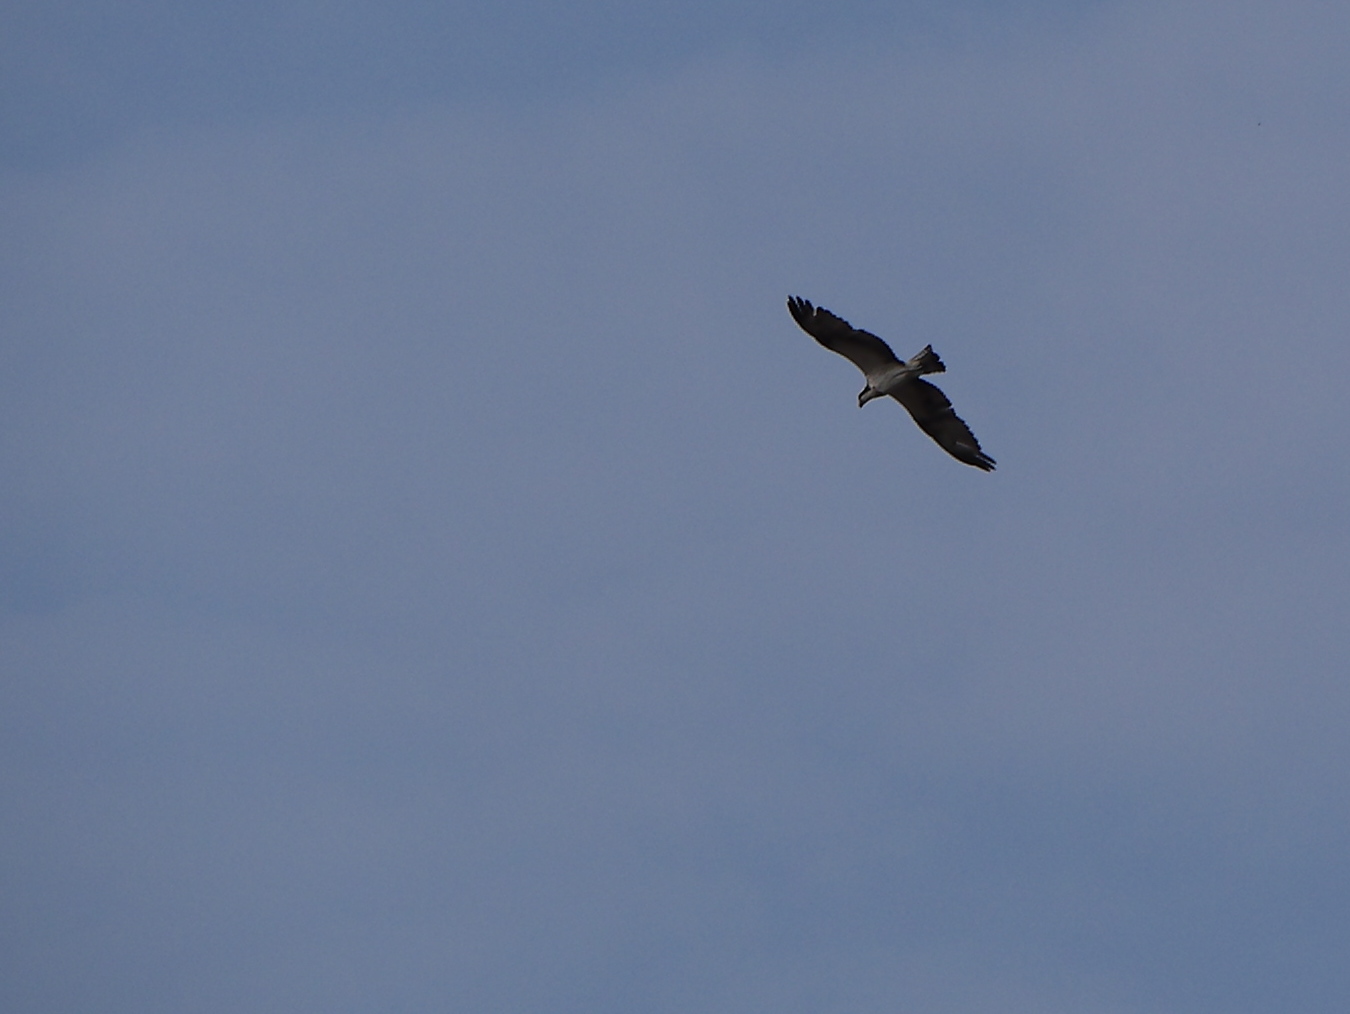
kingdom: Animalia
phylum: Chordata
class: Aves
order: Accipitriformes
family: Pandionidae
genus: Pandion
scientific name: Pandion haliaetus
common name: Osprey
